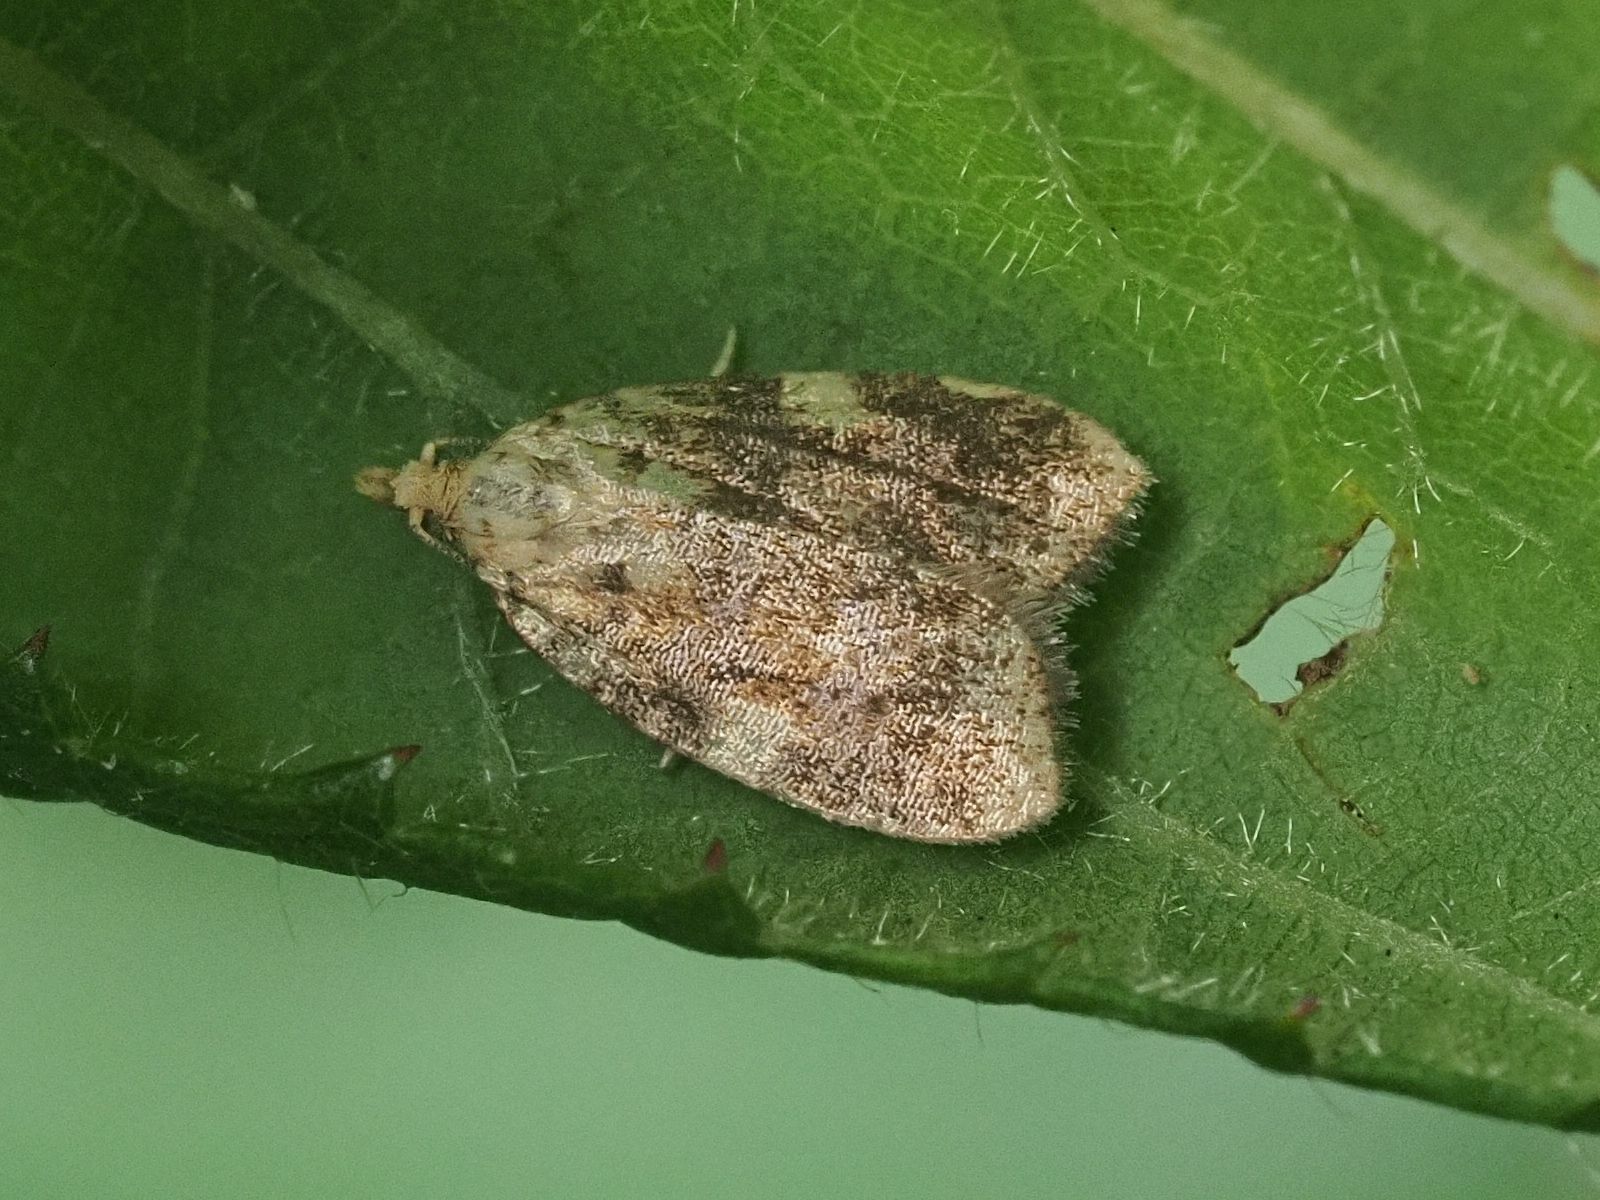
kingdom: Animalia
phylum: Arthropoda
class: Insecta
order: Lepidoptera
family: Tortricidae
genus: Aleimma
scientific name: Aleimma loeflingiana
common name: Yellow oak button
